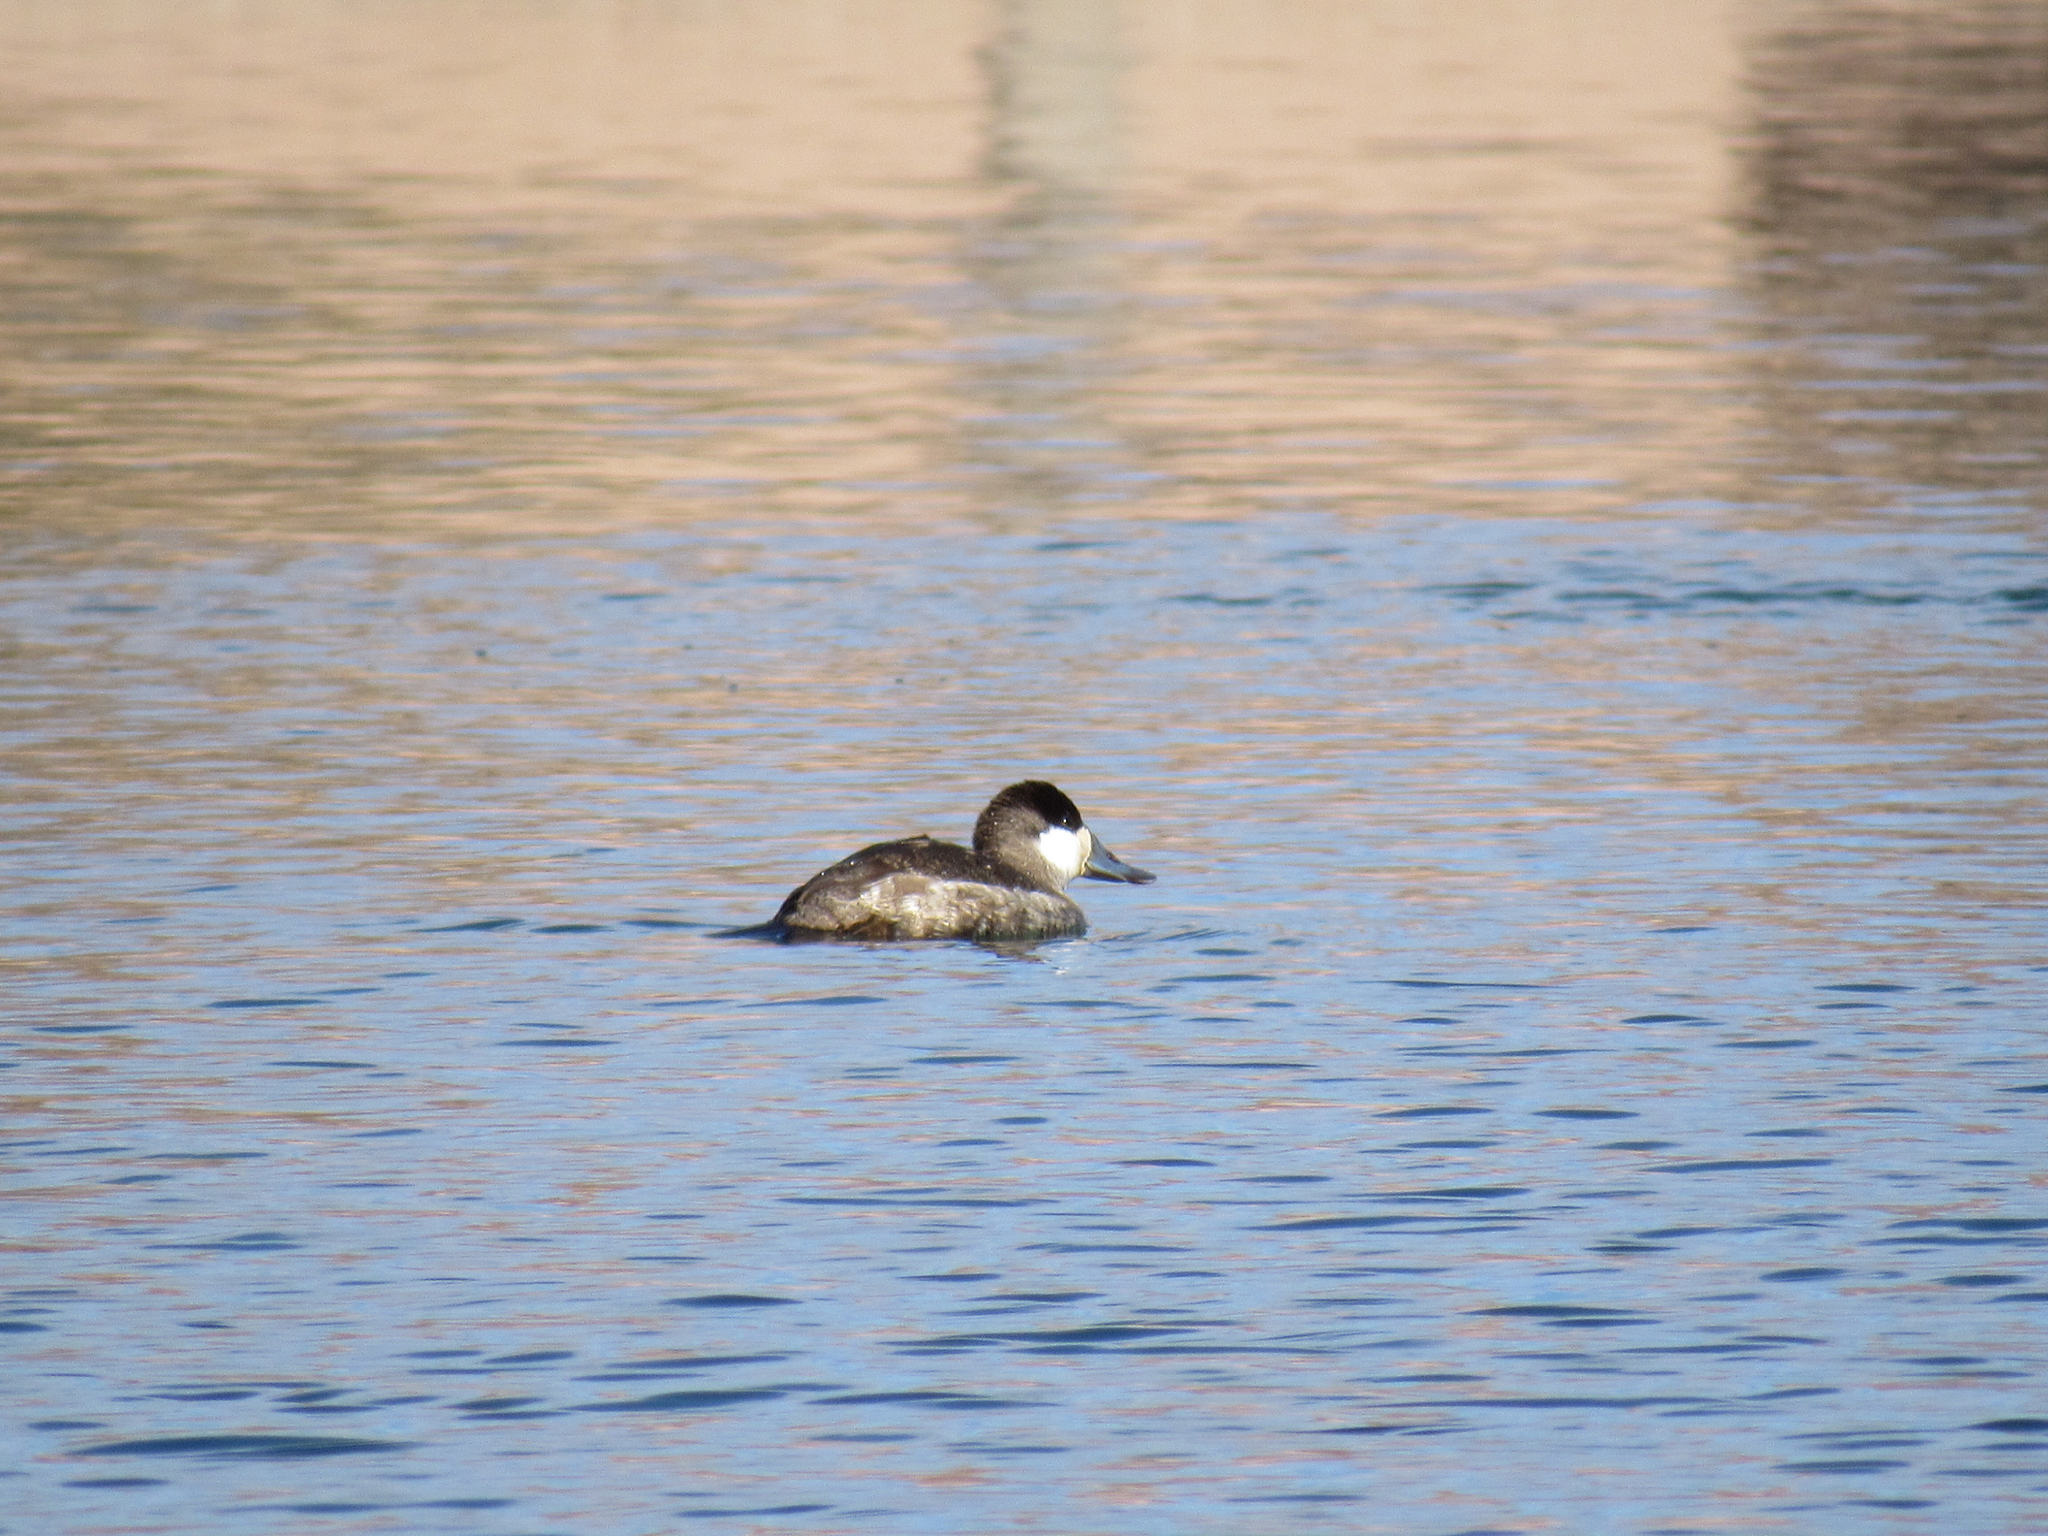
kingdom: Animalia
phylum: Chordata
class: Aves
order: Anseriformes
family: Anatidae
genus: Oxyura
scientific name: Oxyura jamaicensis
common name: Ruddy duck
